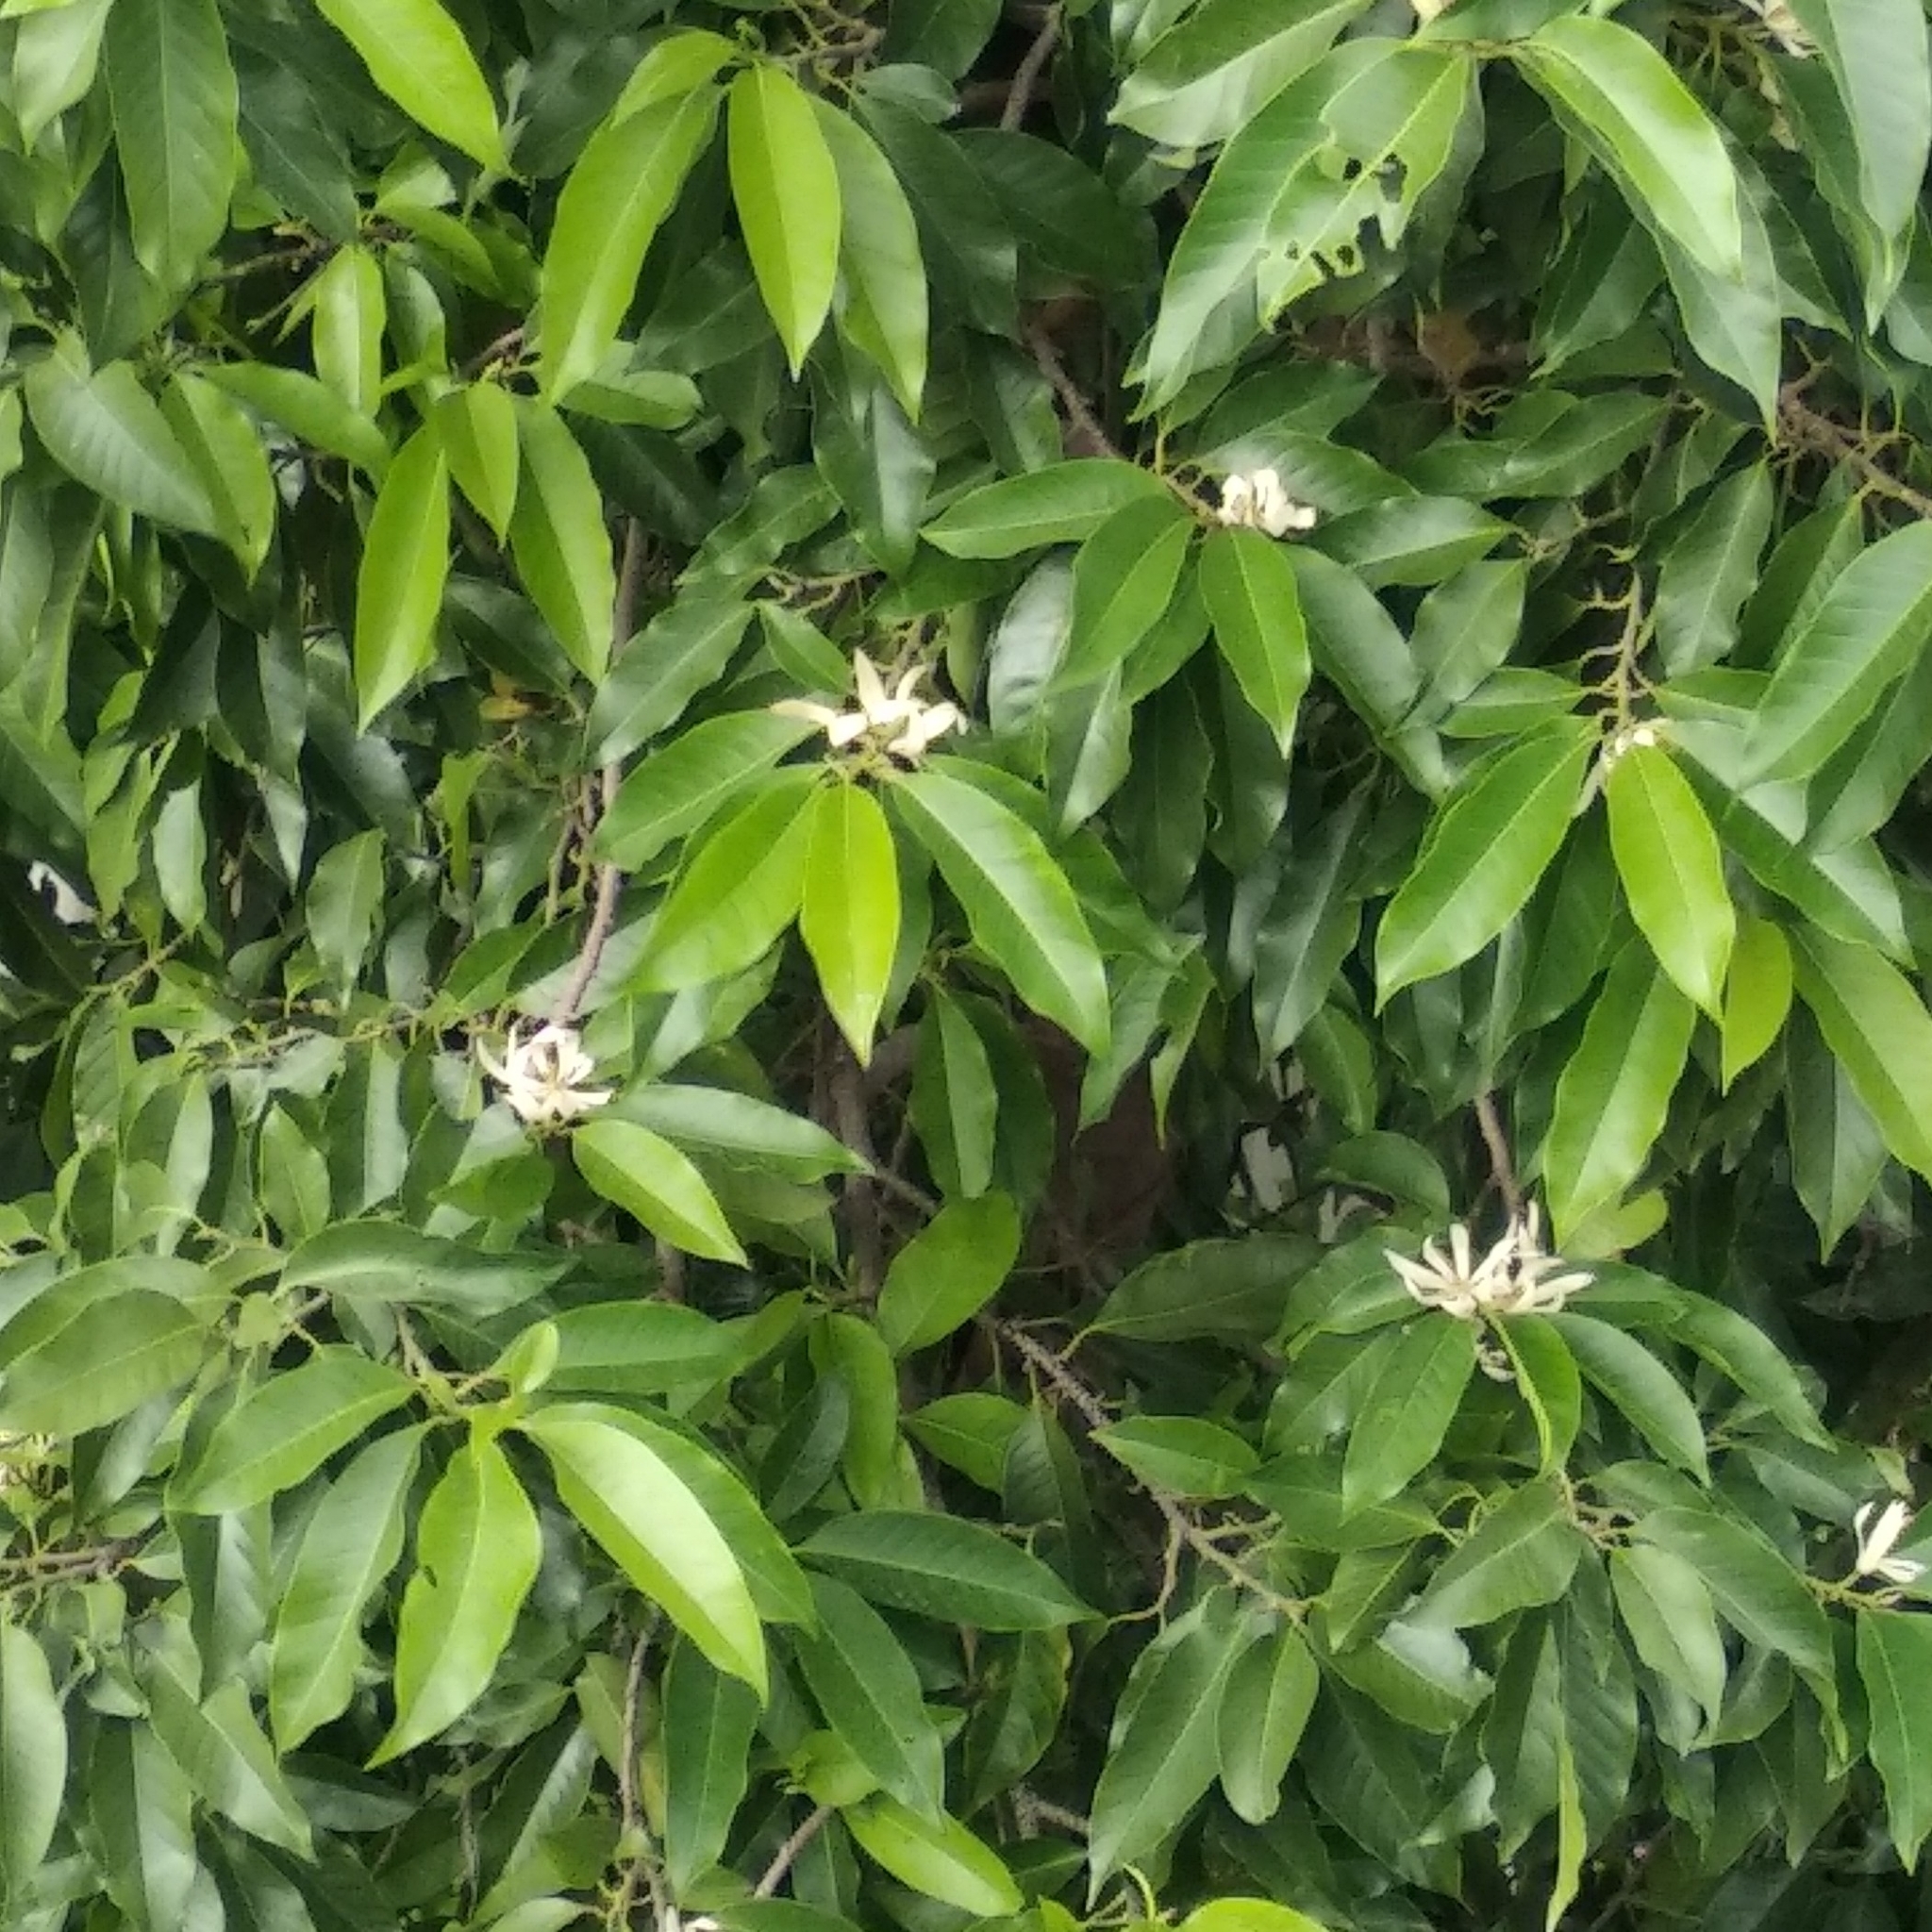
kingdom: Plantae
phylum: Tracheophyta
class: Magnoliopsida
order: Magnoliales
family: Magnoliaceae
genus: Magnolia
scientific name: Magnolia champaca
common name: Champak
